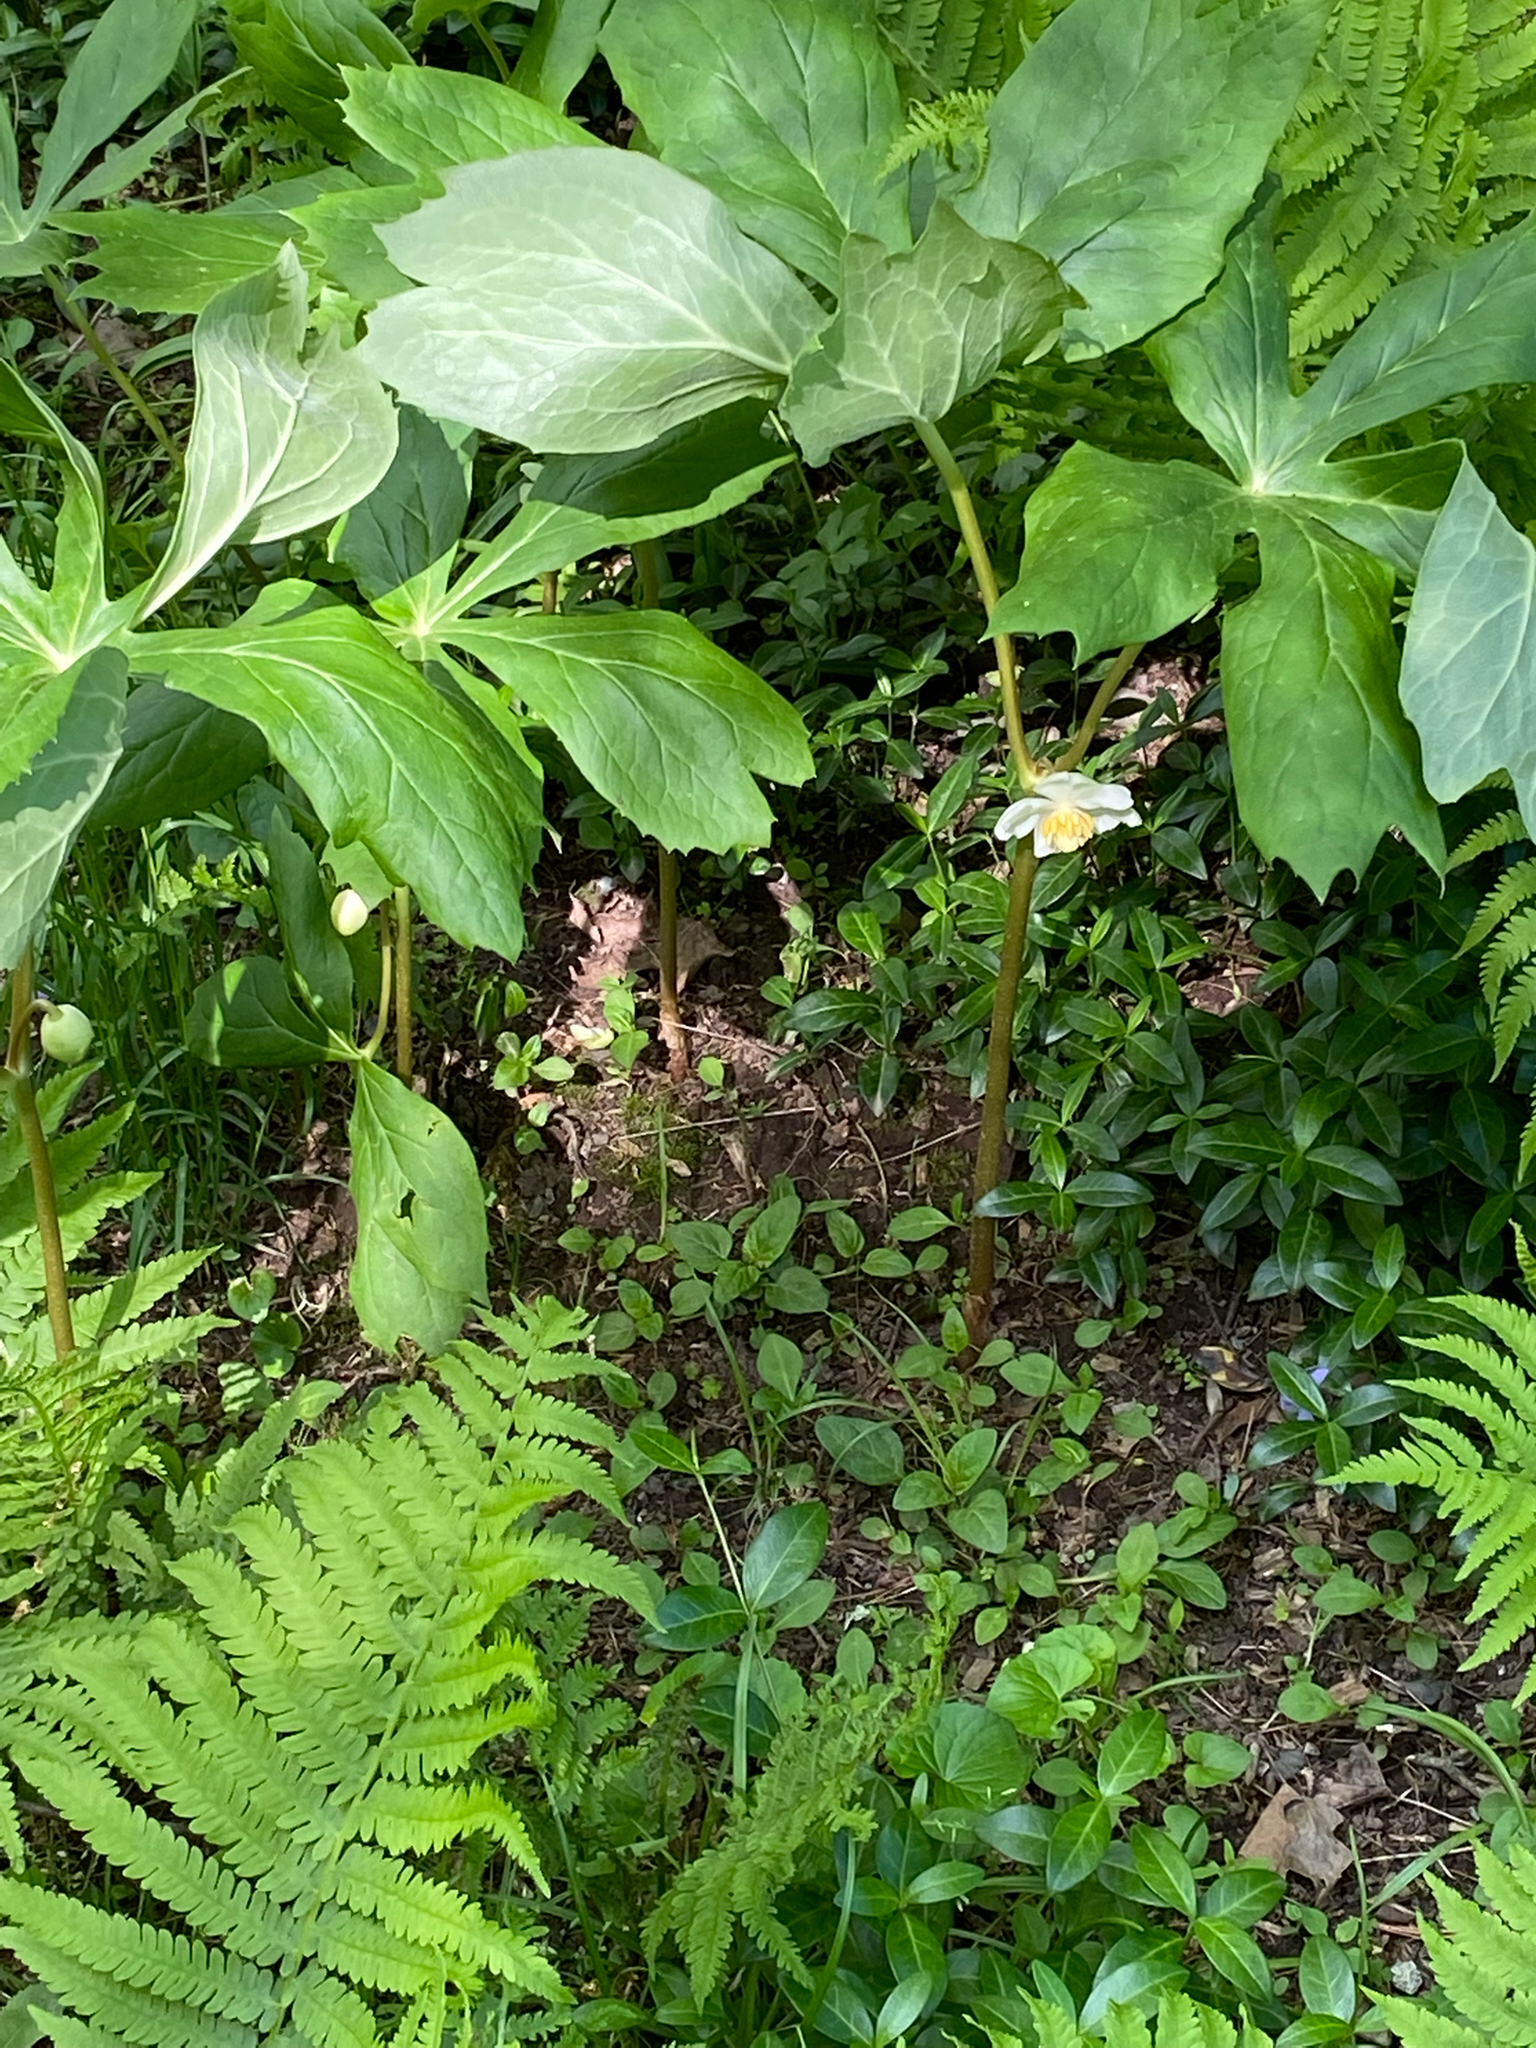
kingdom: Plantae
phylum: Tracheophyta
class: Magnoliopsida
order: Ranunculales
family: Berberidaceae
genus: Podophyllum
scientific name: Podophyllum peltatum
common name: Wild mandrake
